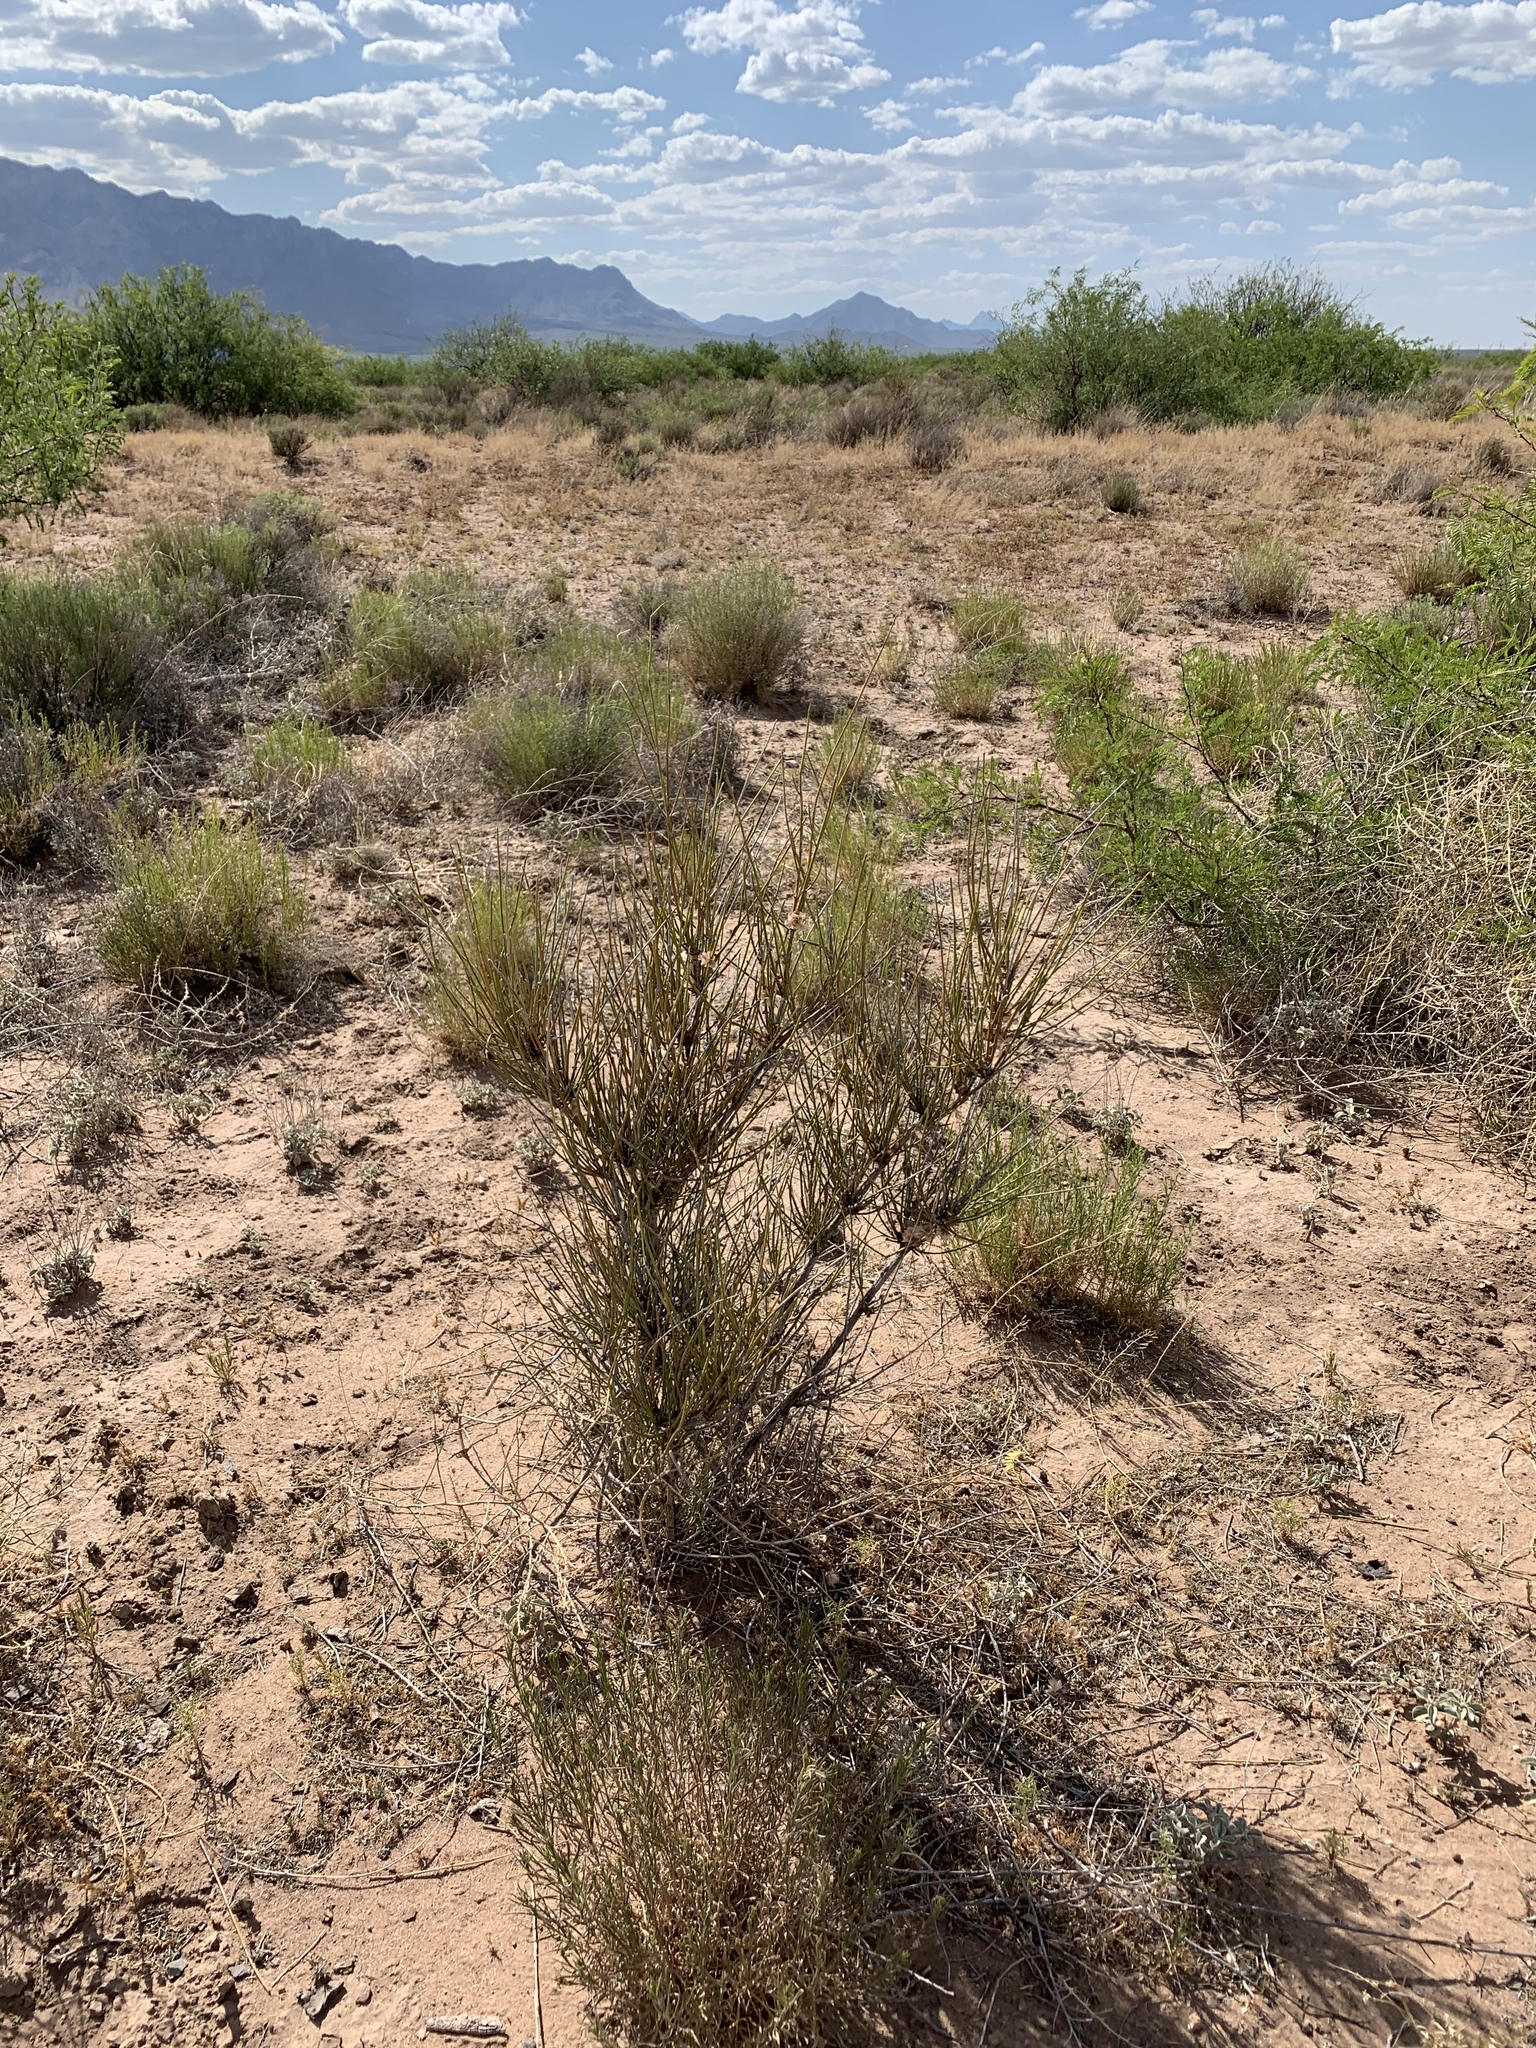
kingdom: Plantae
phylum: Tracheophyta
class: Gnetopsida
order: Ephedrales
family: Ephedraceae
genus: Ephedra
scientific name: Ephedra trifurca
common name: Mexican-tea
